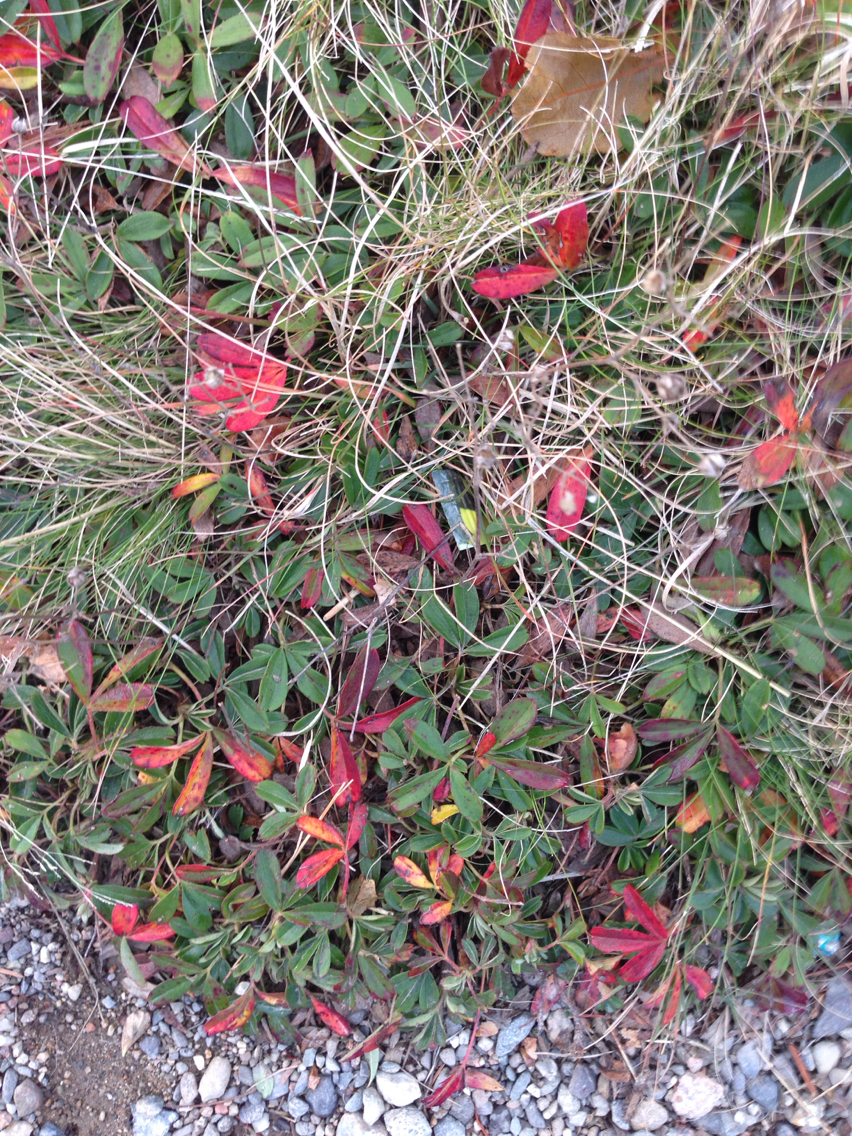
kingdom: Plantae
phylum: Tracheophyta
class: Magnoliopsida
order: Rosales
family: Rosaceae
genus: Sibbaldia
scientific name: Sibbaldia tridentata
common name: Three-toothed cinquefoil
